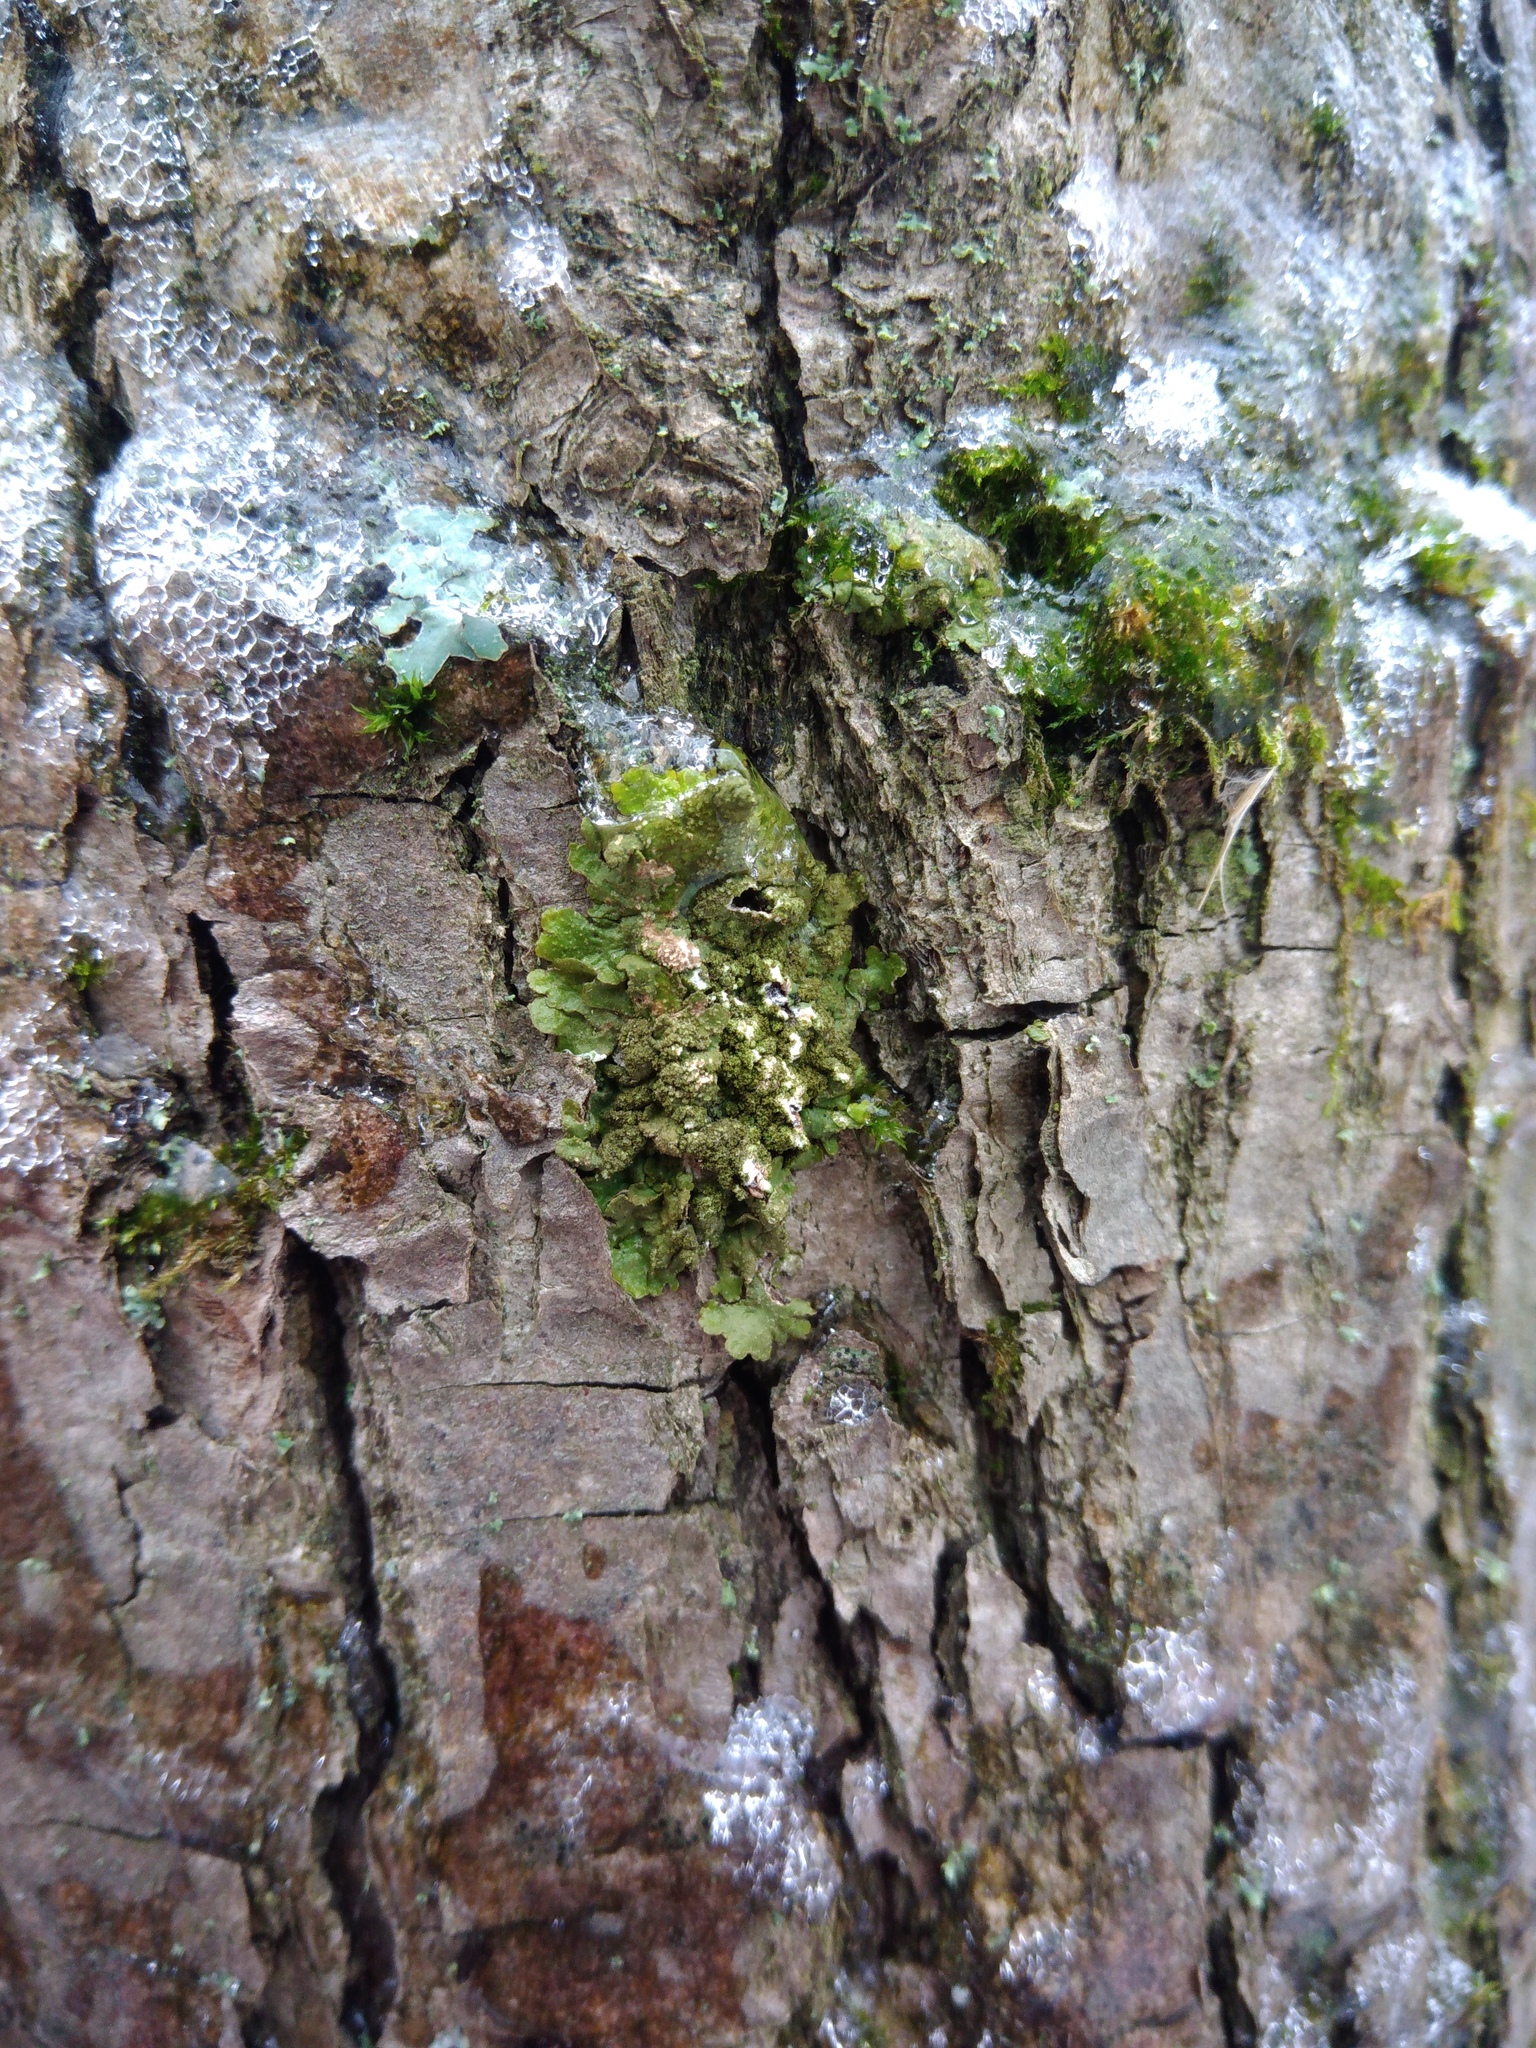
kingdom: Fungi
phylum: Ascomycota
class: Lecanoromycetes
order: Lecanorales
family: Parmeliaceae
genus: Melanelixia
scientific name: Melanelixia subaurifera
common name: Abraded camouflage lichen
